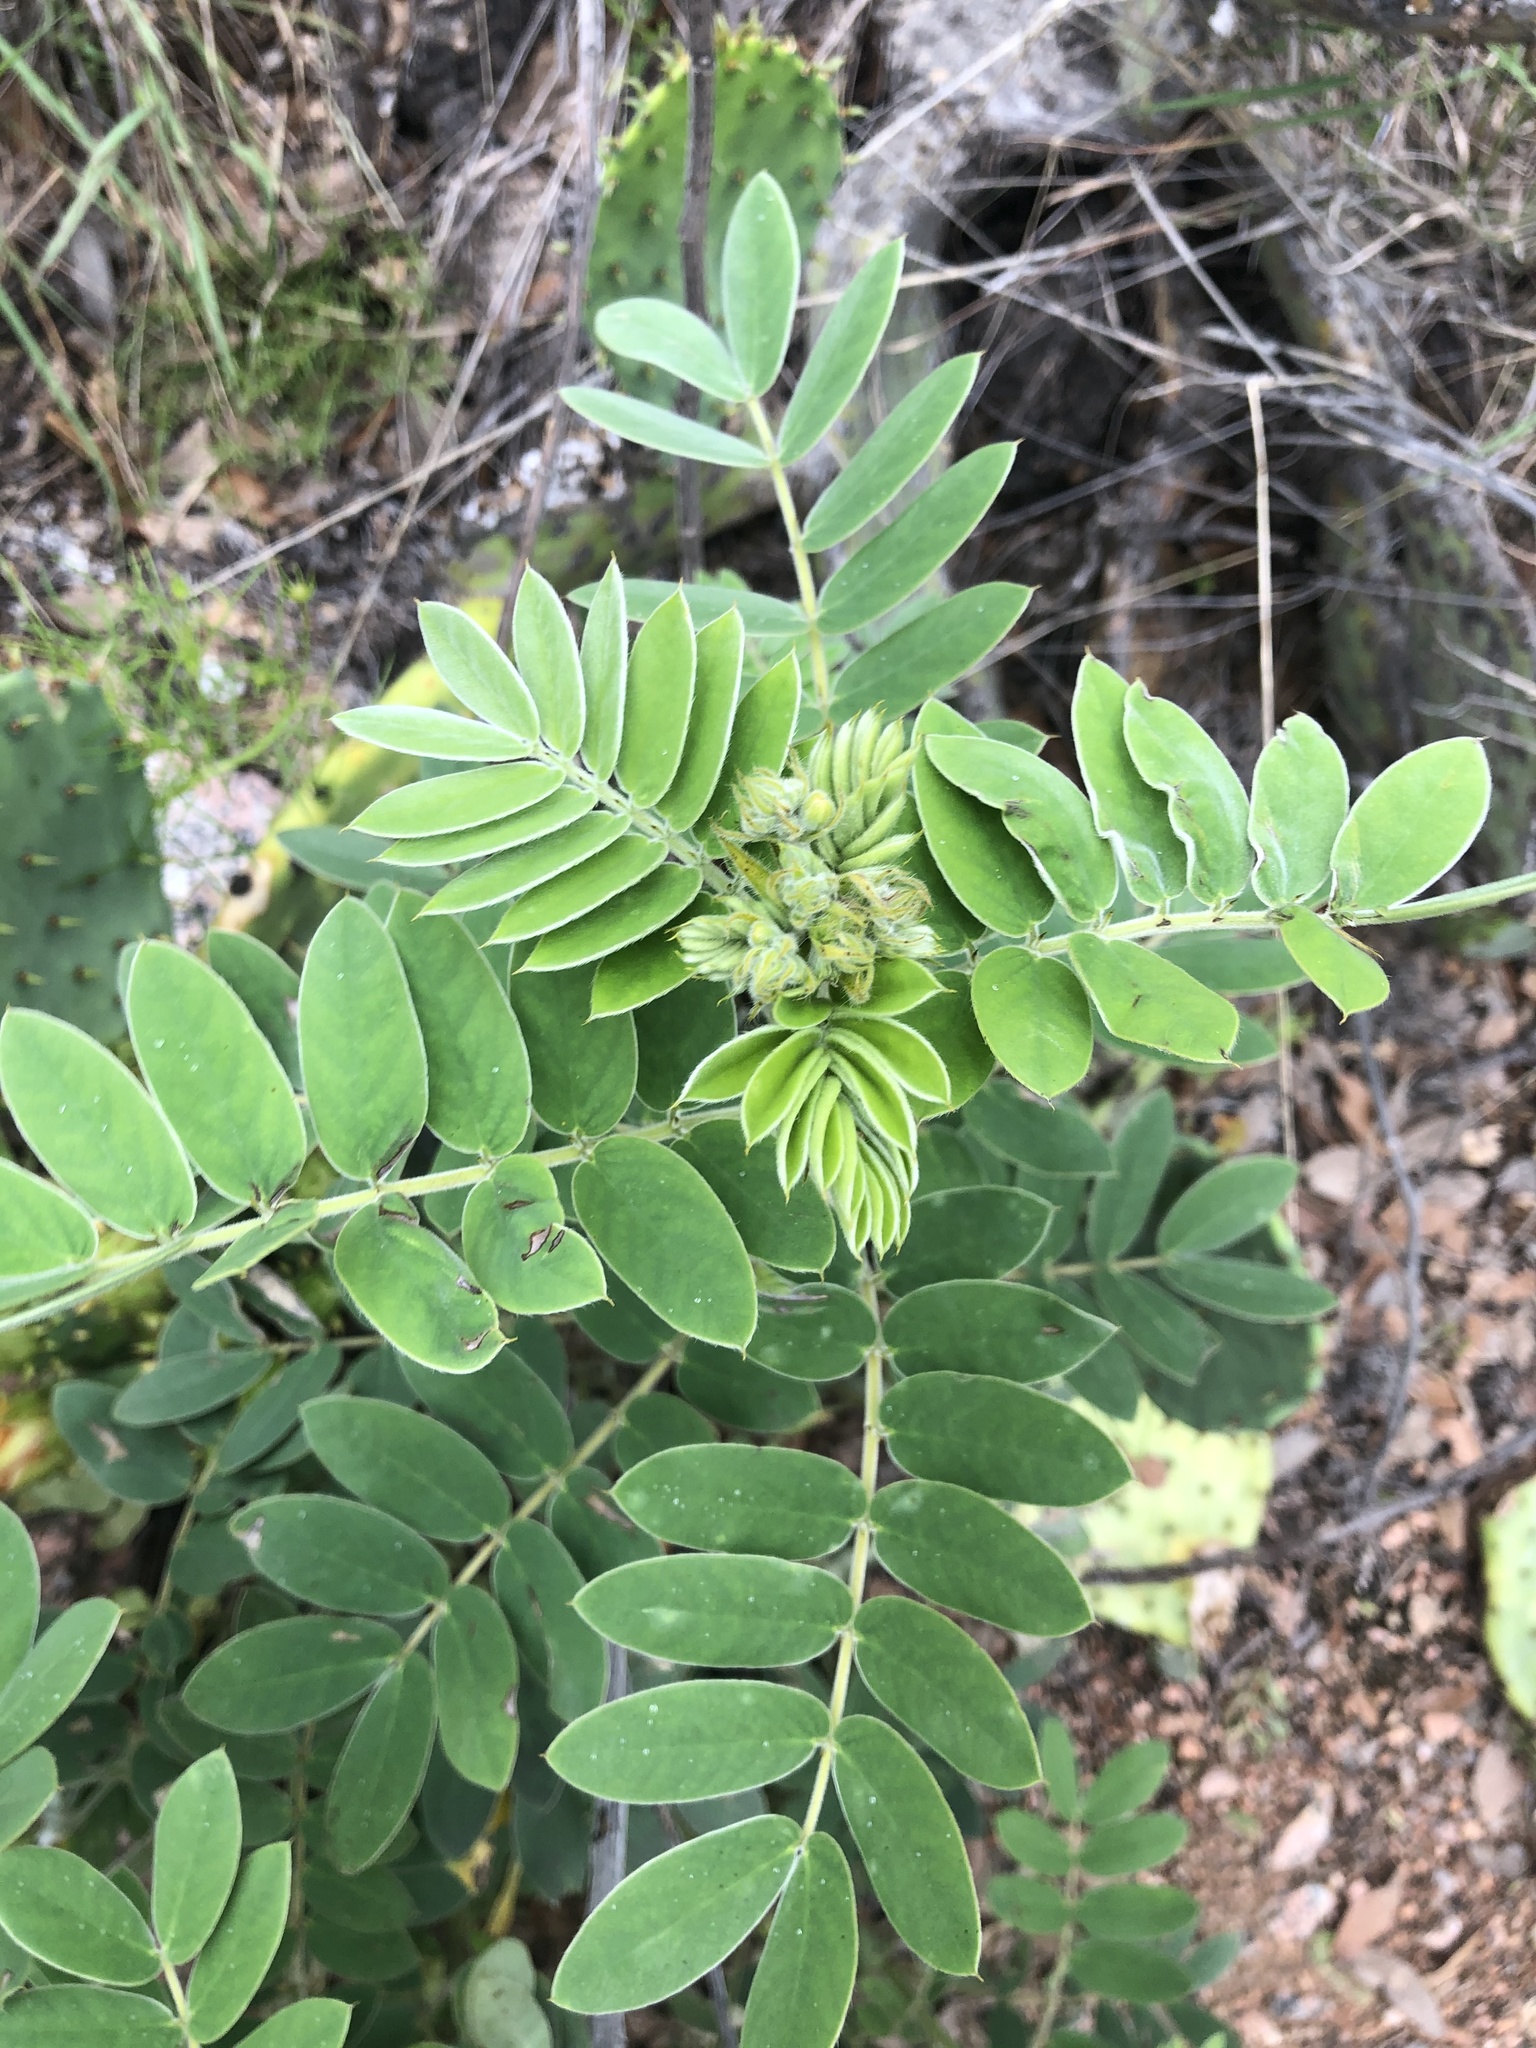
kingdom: Plantae
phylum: Tracheophyta
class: Magnoliopsida
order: Fabales
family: Fabaceae
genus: Senna
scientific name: Senna lindheimeriana
